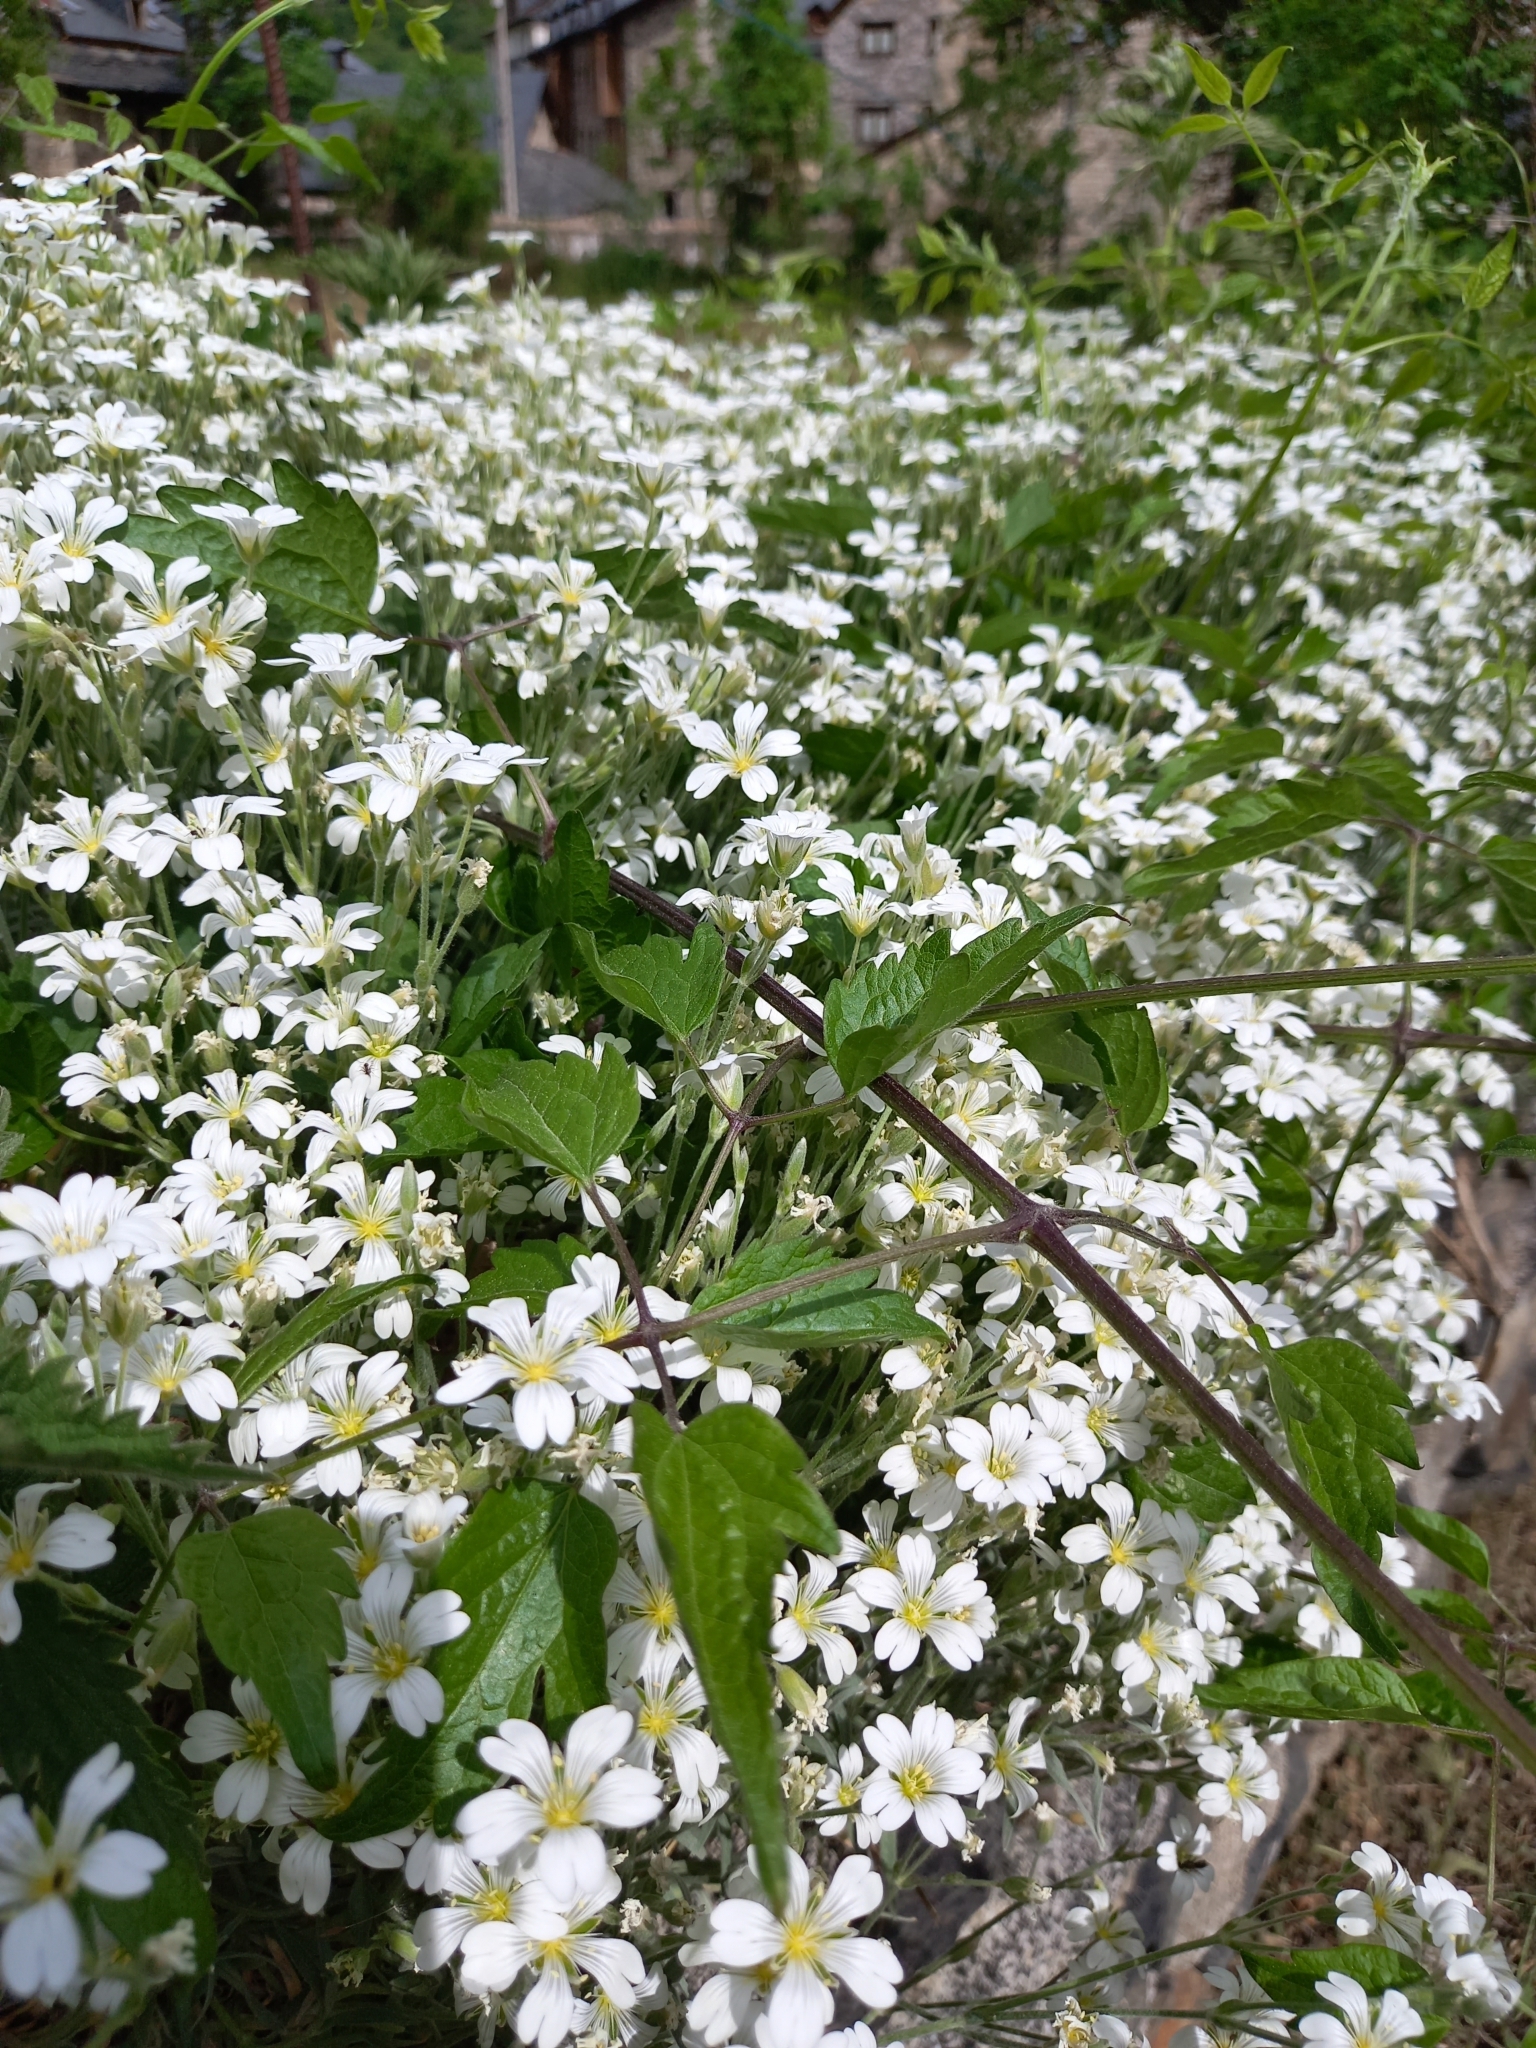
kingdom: Plantae
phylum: Tracheophyta
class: Magnoliopsida
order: Caryophyllales
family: Caryophyllaceae
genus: Cerastium
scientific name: Cerastium tomentosum
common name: Snow-in-summer
